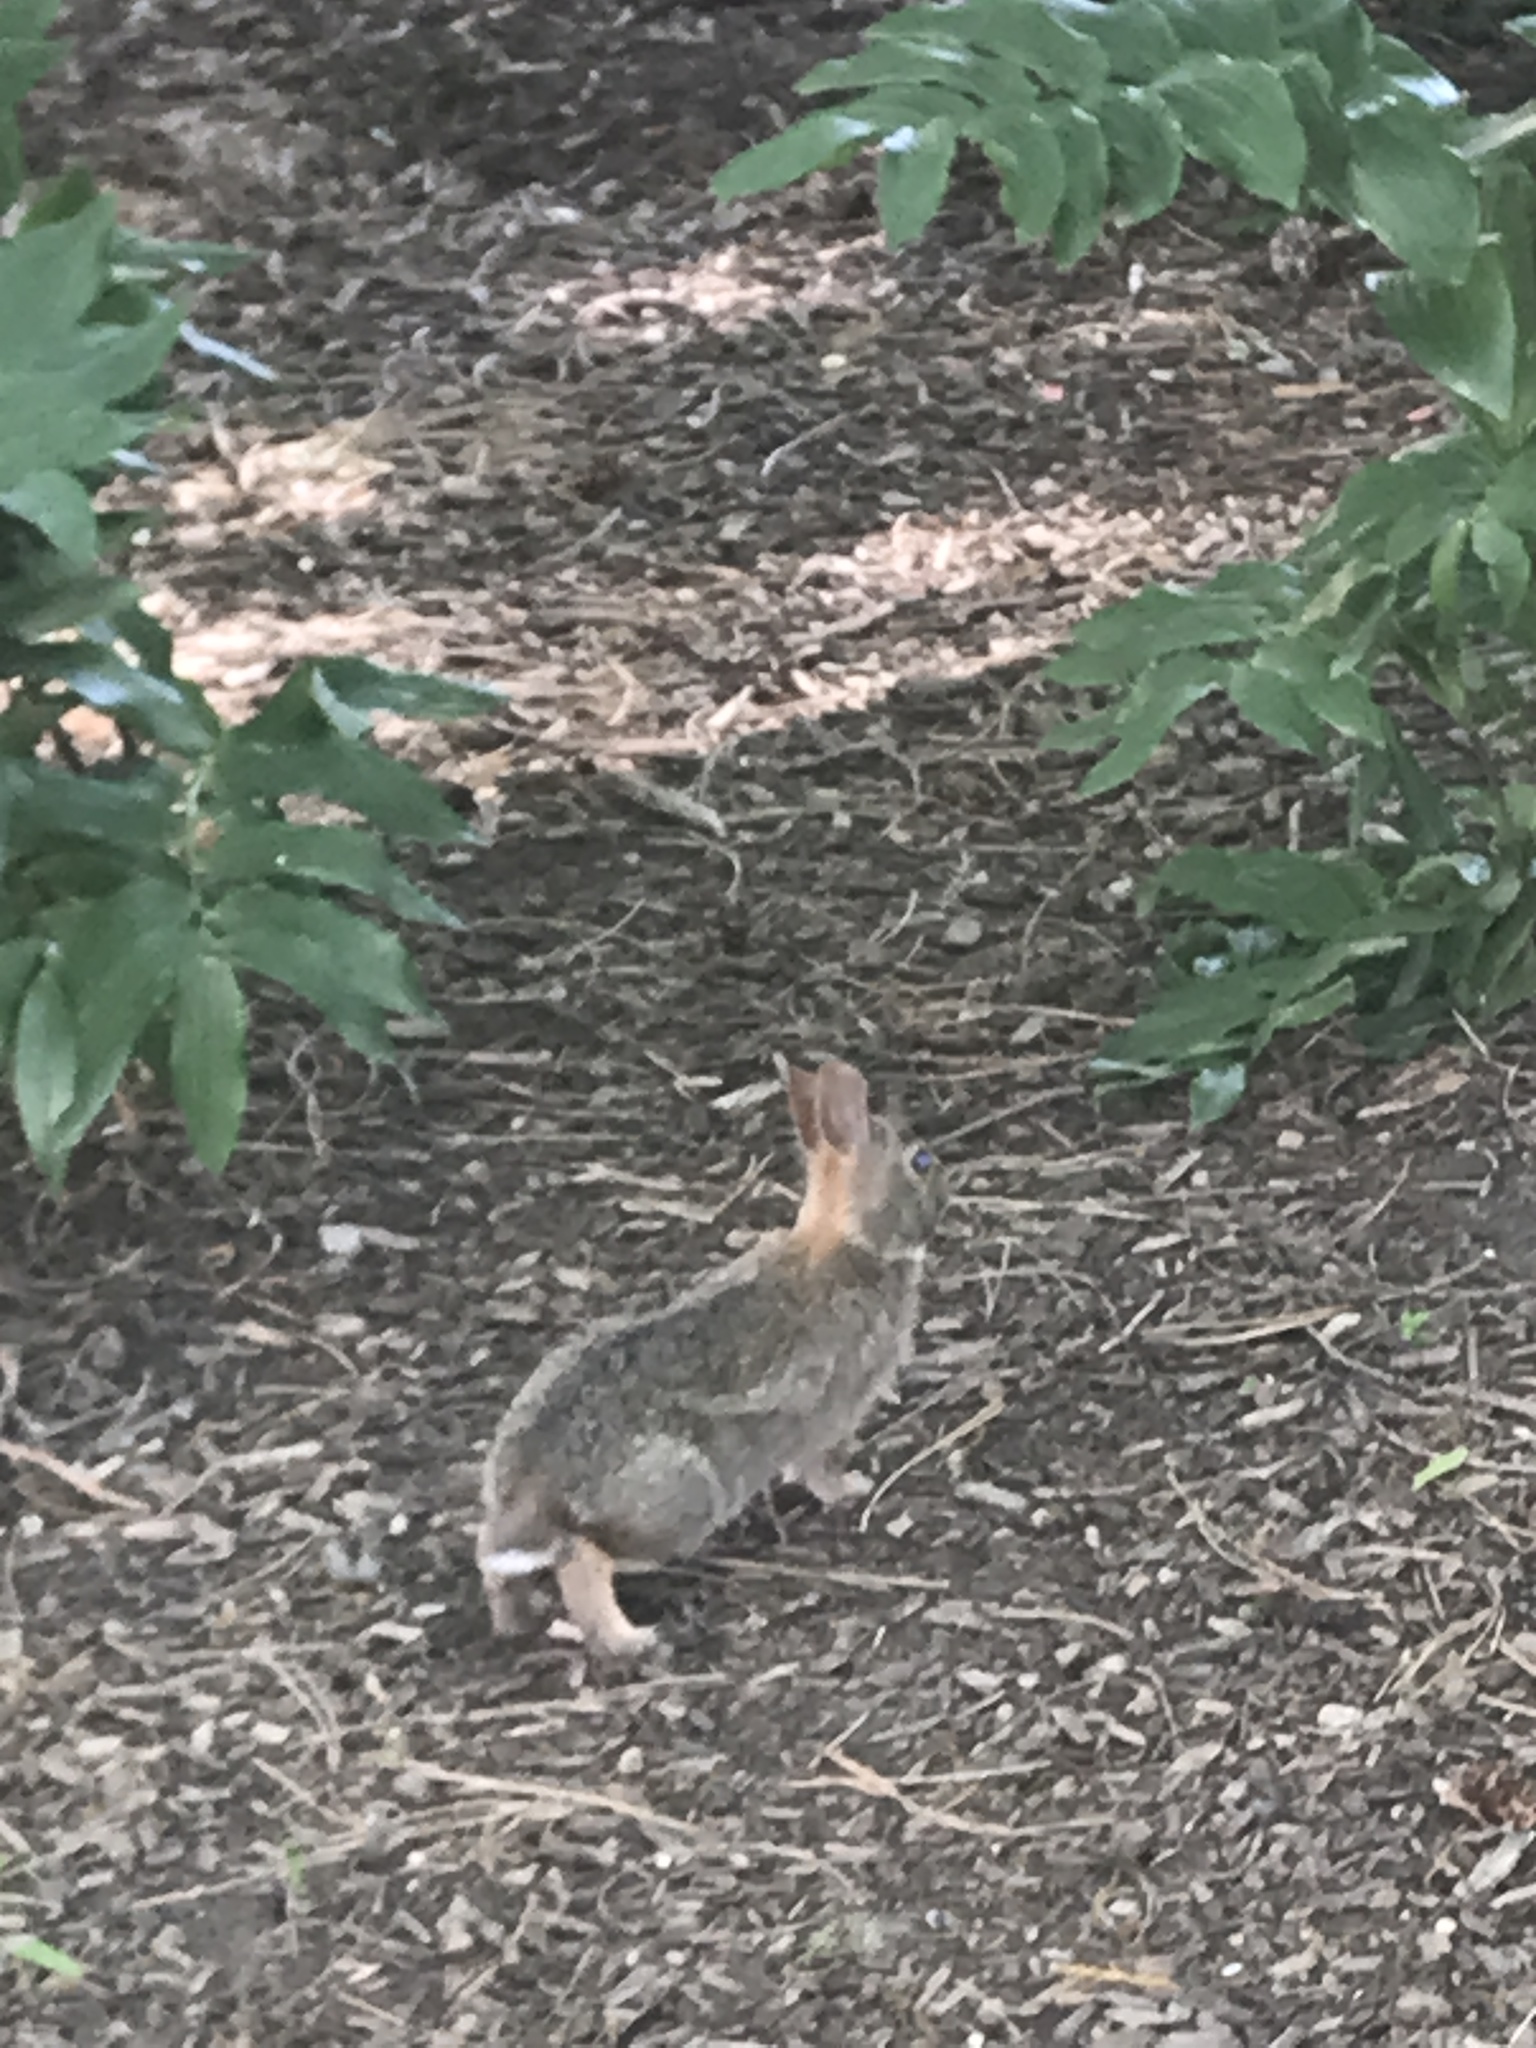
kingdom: Animalia
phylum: Chordata
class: Mammalia
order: Lagomorpha
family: Leporidae
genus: Sylvilagus
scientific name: Sylvilagus floridanus
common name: Eastern cottontail
